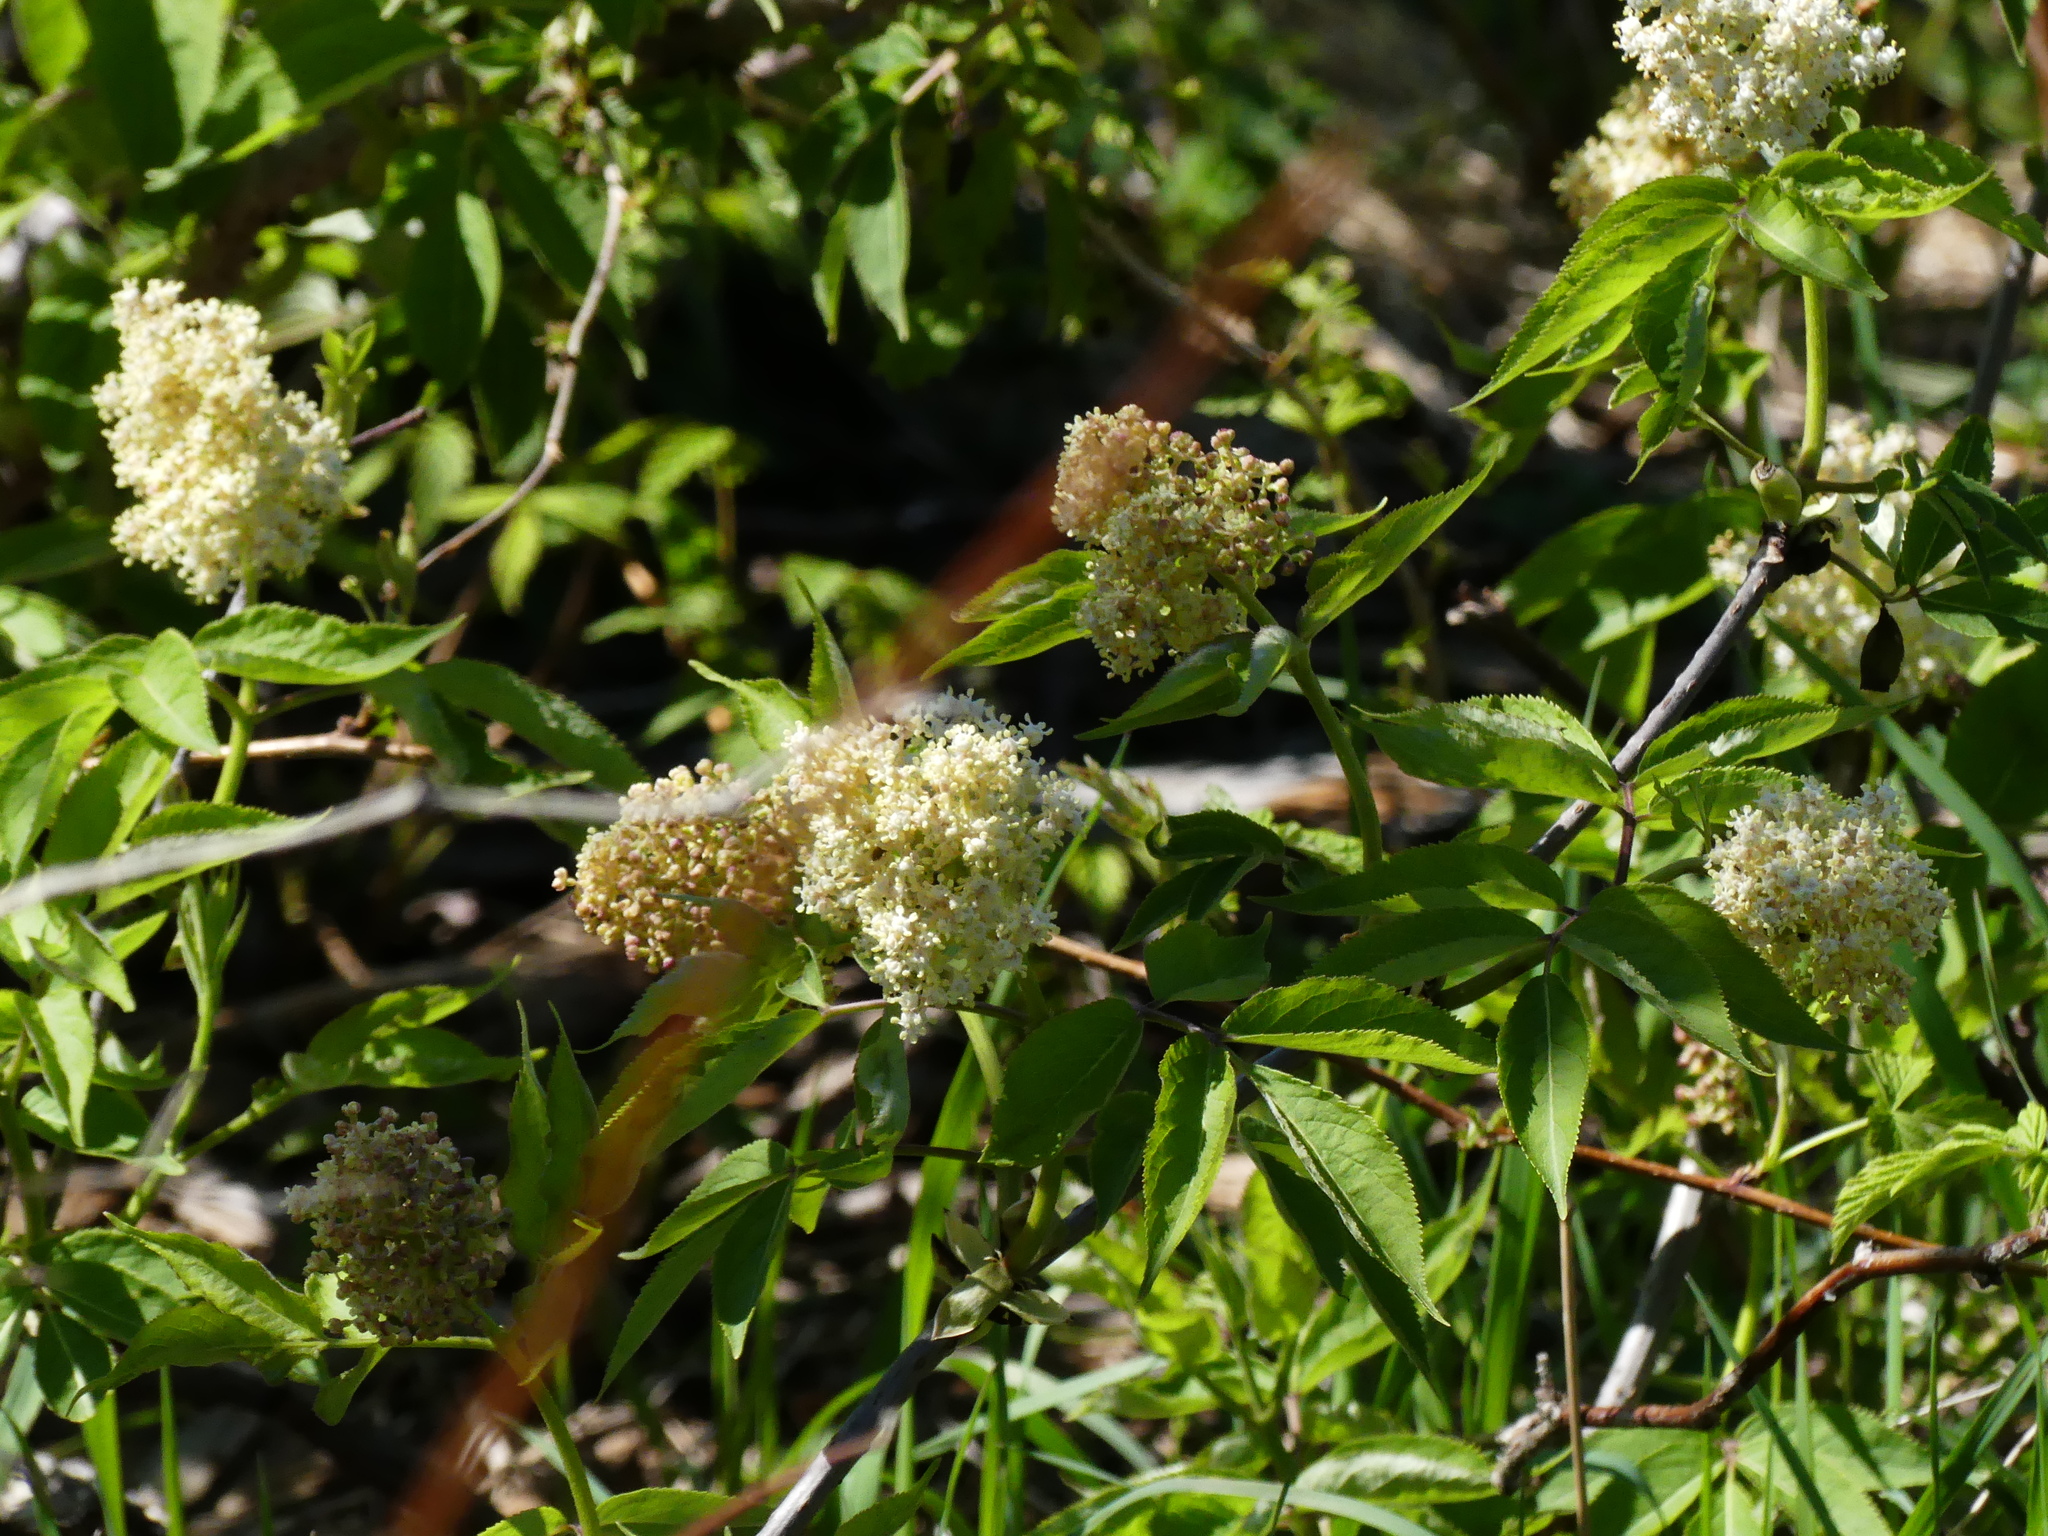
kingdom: Plantae
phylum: Tracheophyta
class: Magnoliopsida
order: Dipsacales
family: Viburnaceae
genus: Sambucus
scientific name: Sambucus racemosa
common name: Red-berried elder
